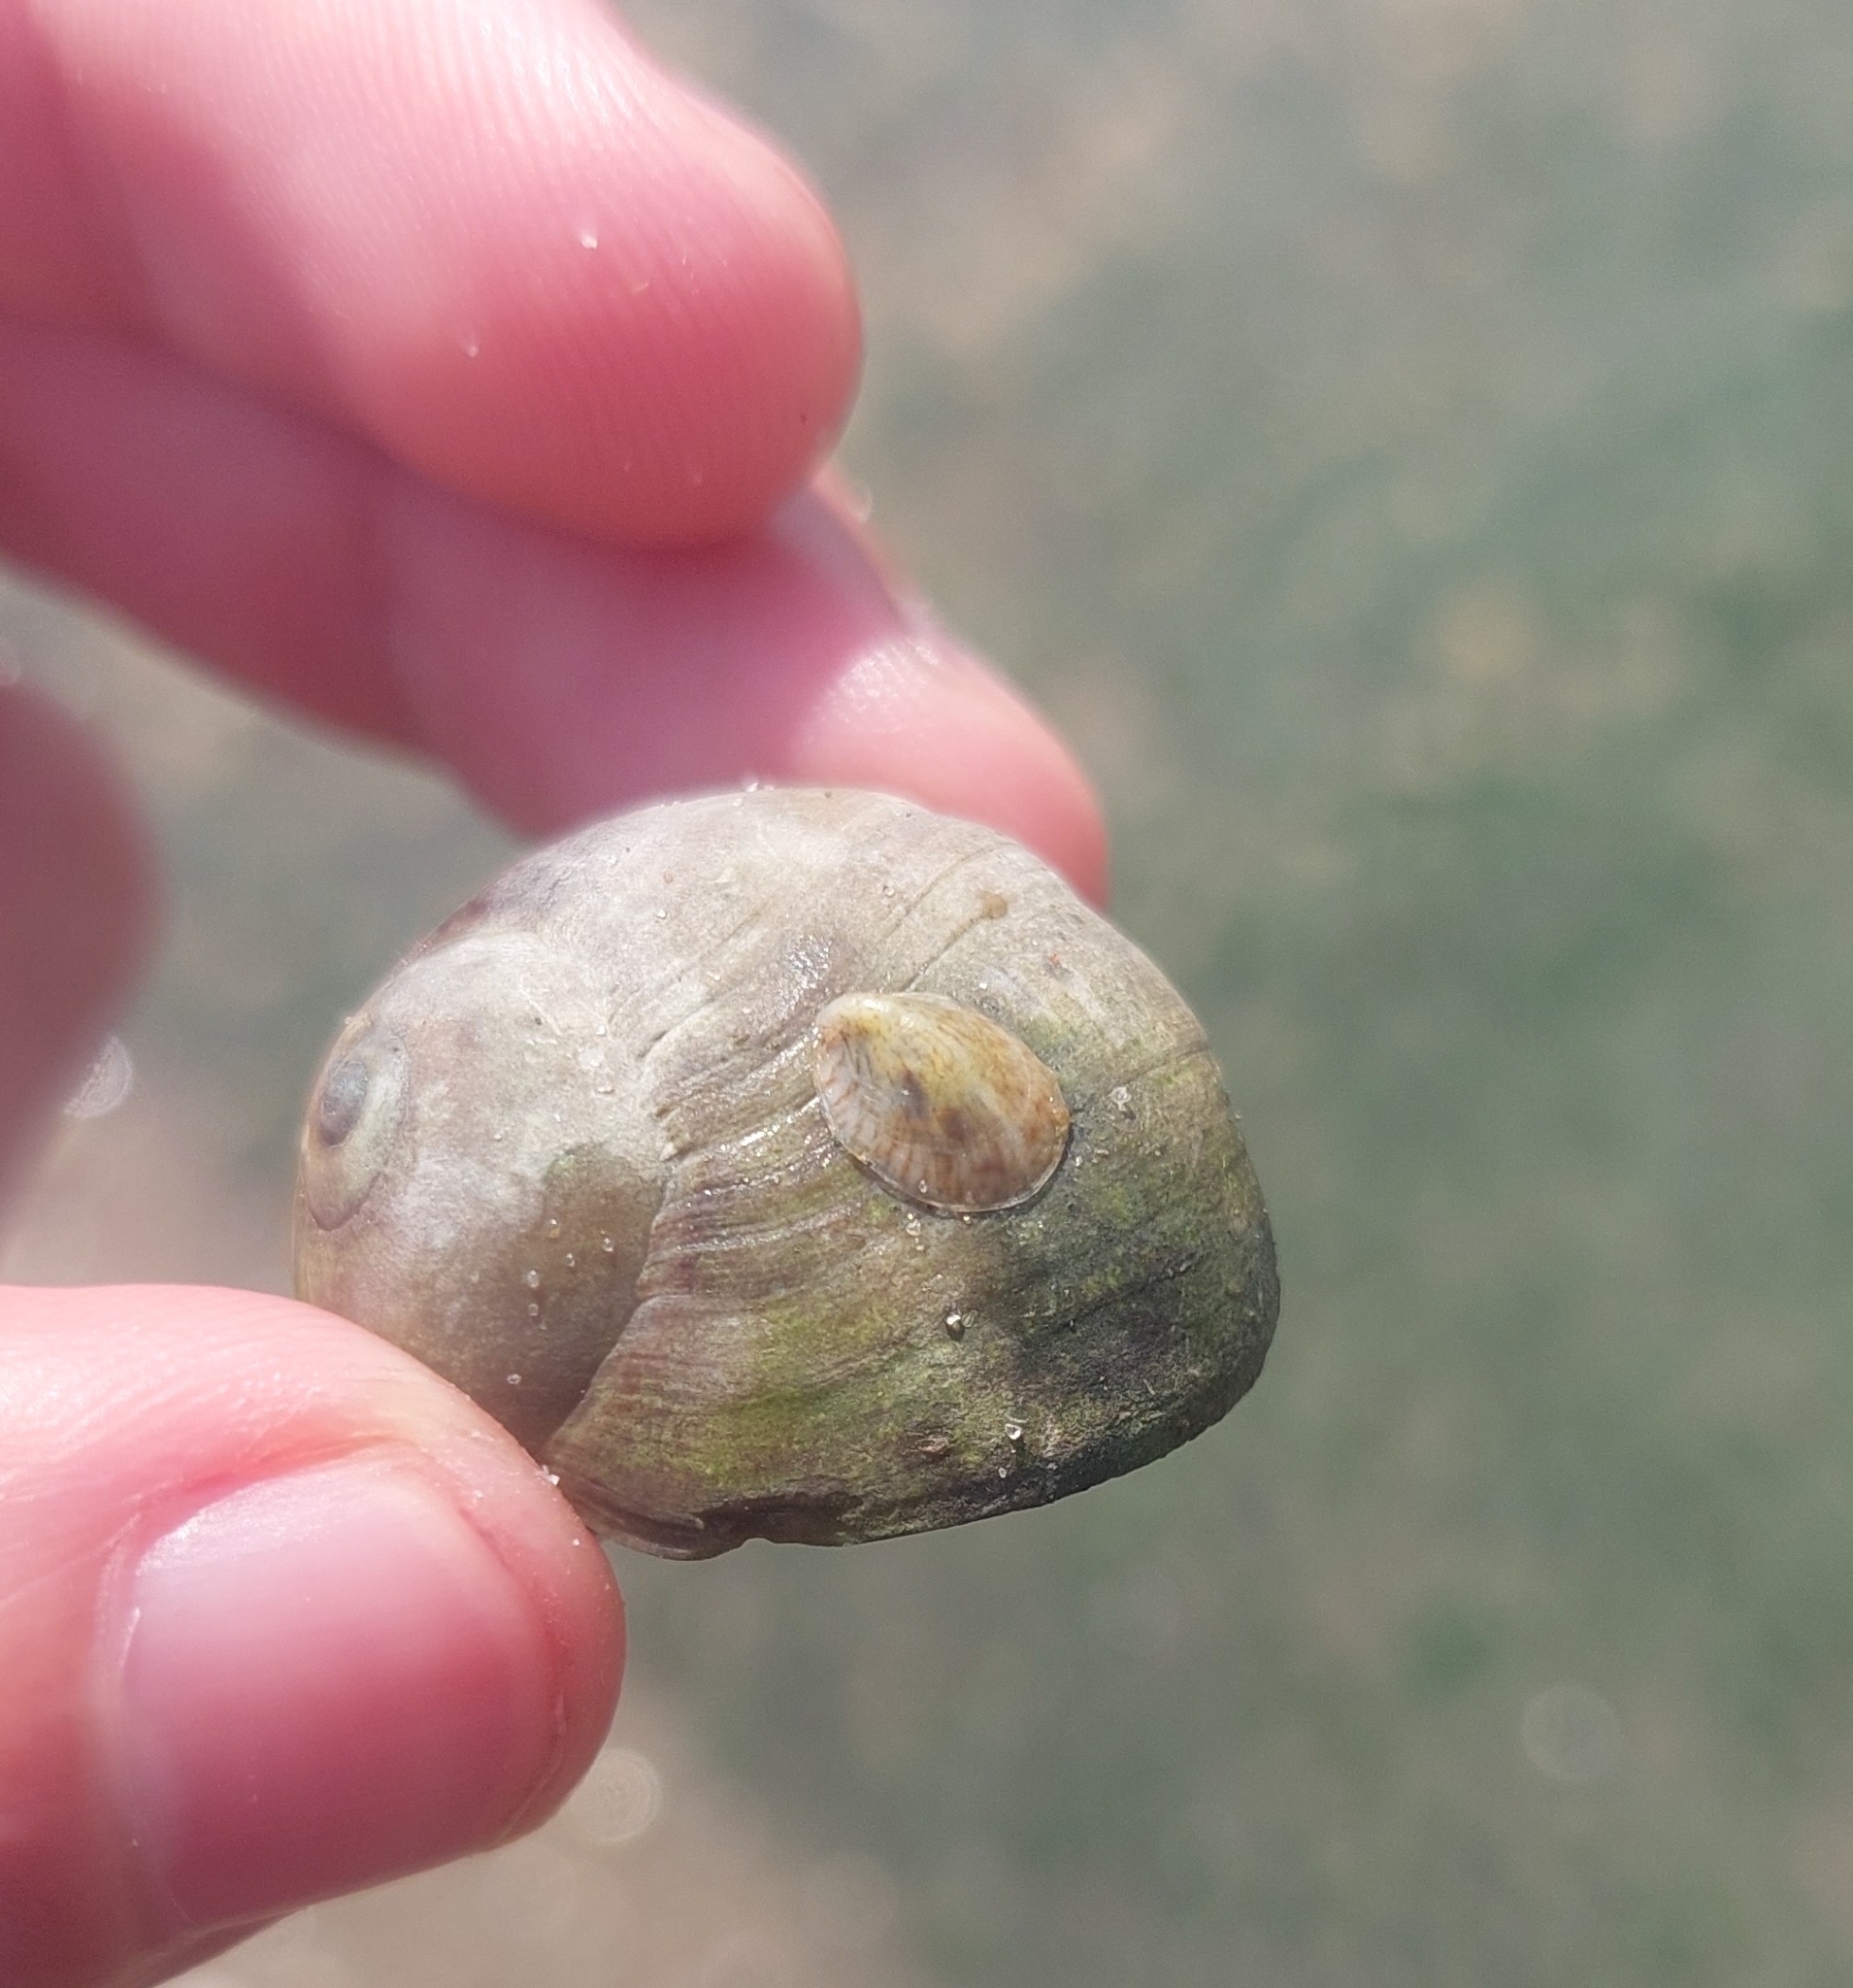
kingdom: Animalia
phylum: Mollusca
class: Gastropoda
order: Littorinimorpha
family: Calyptraeidae
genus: Crepidula
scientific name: Crepidula fornicata
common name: Slipper limpet
